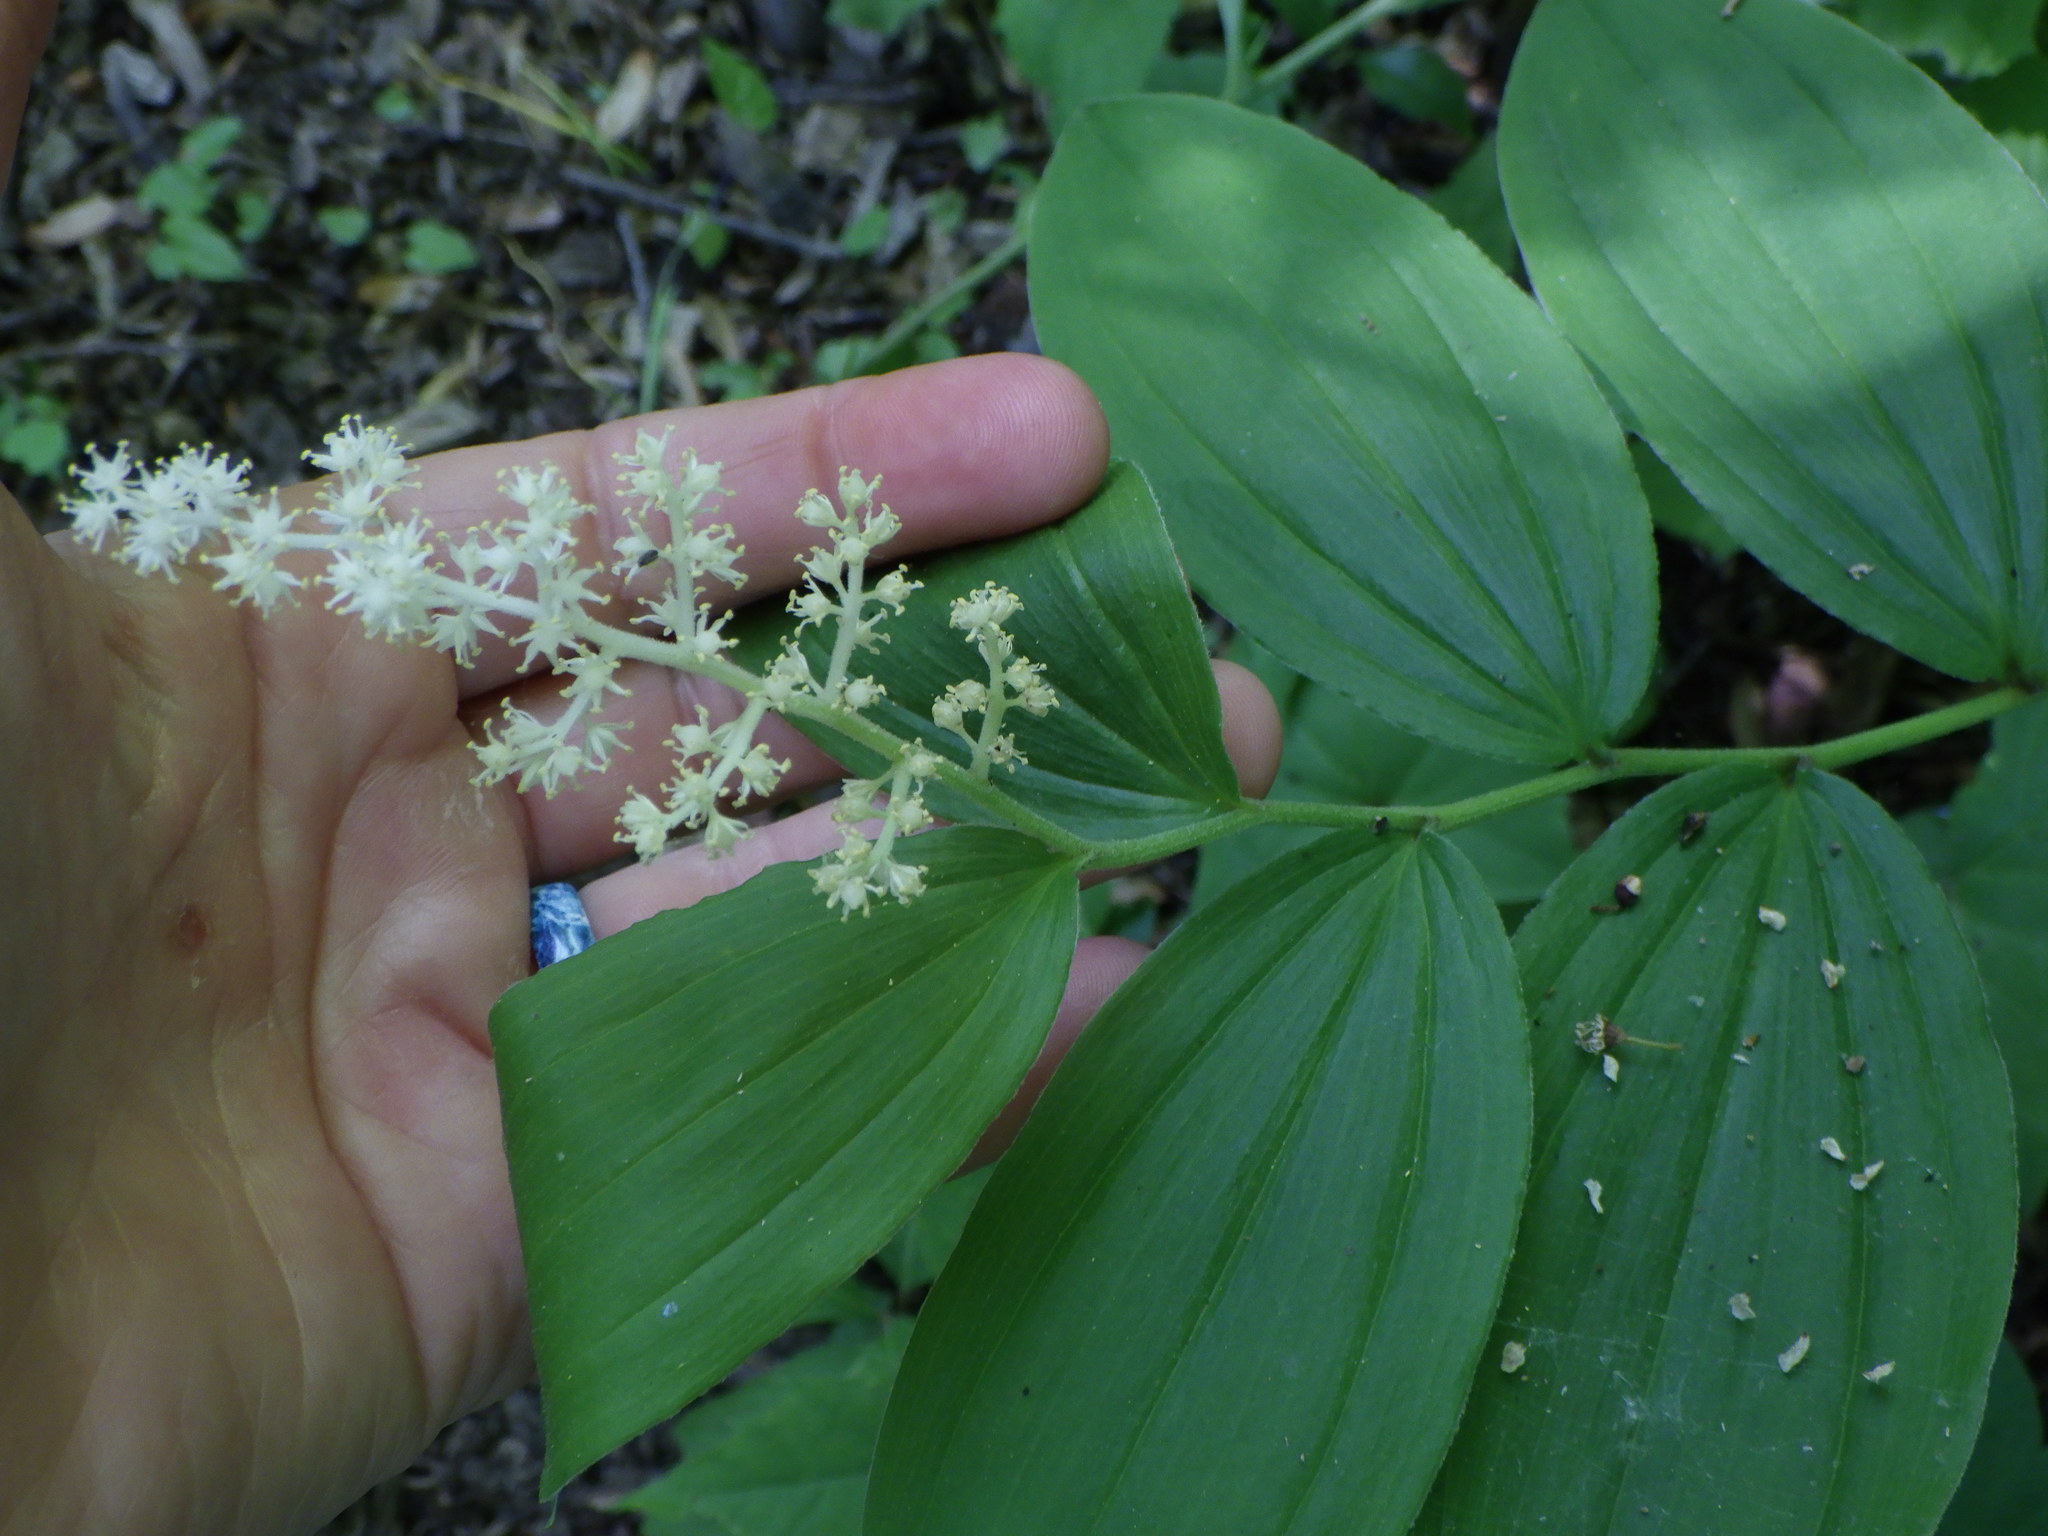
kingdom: Plantae
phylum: Tracheophyta
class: Liliopsida
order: Asparagales
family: Asparagaceae
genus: Maianthemum
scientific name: Maianthemum racemosum
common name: False spikenard
